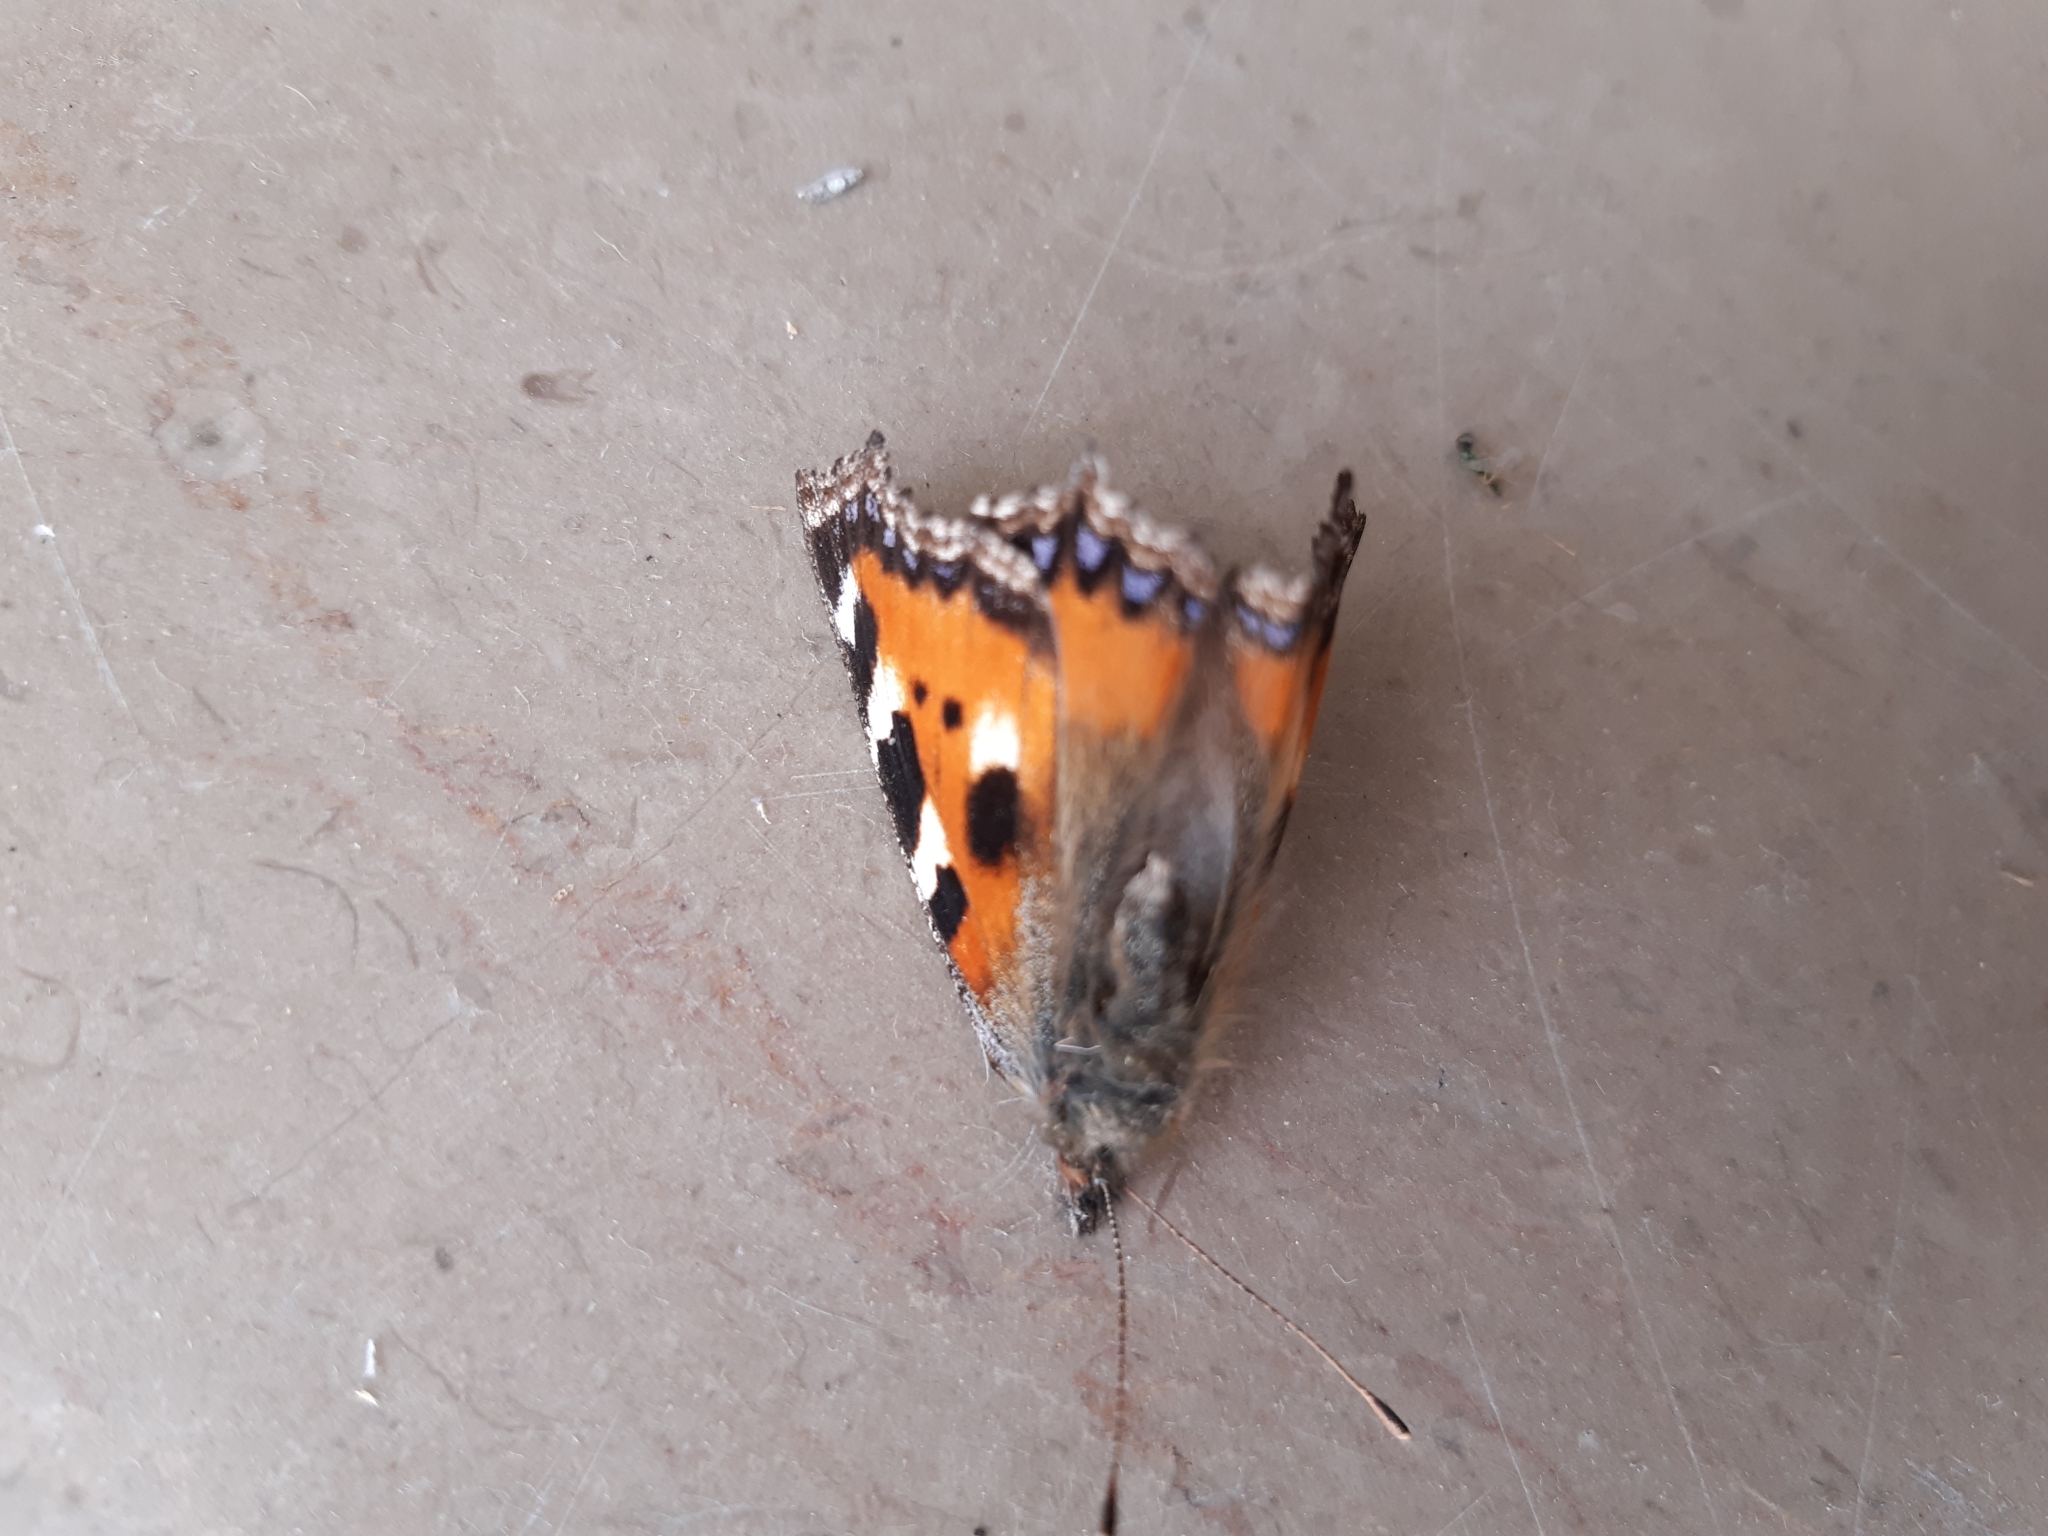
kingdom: Animalia
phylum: Arthropoda
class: Insecta
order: Lepidoptera
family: Nymphalidae
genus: Aglais
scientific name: Aglais urticae
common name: Small tortoiseshell
